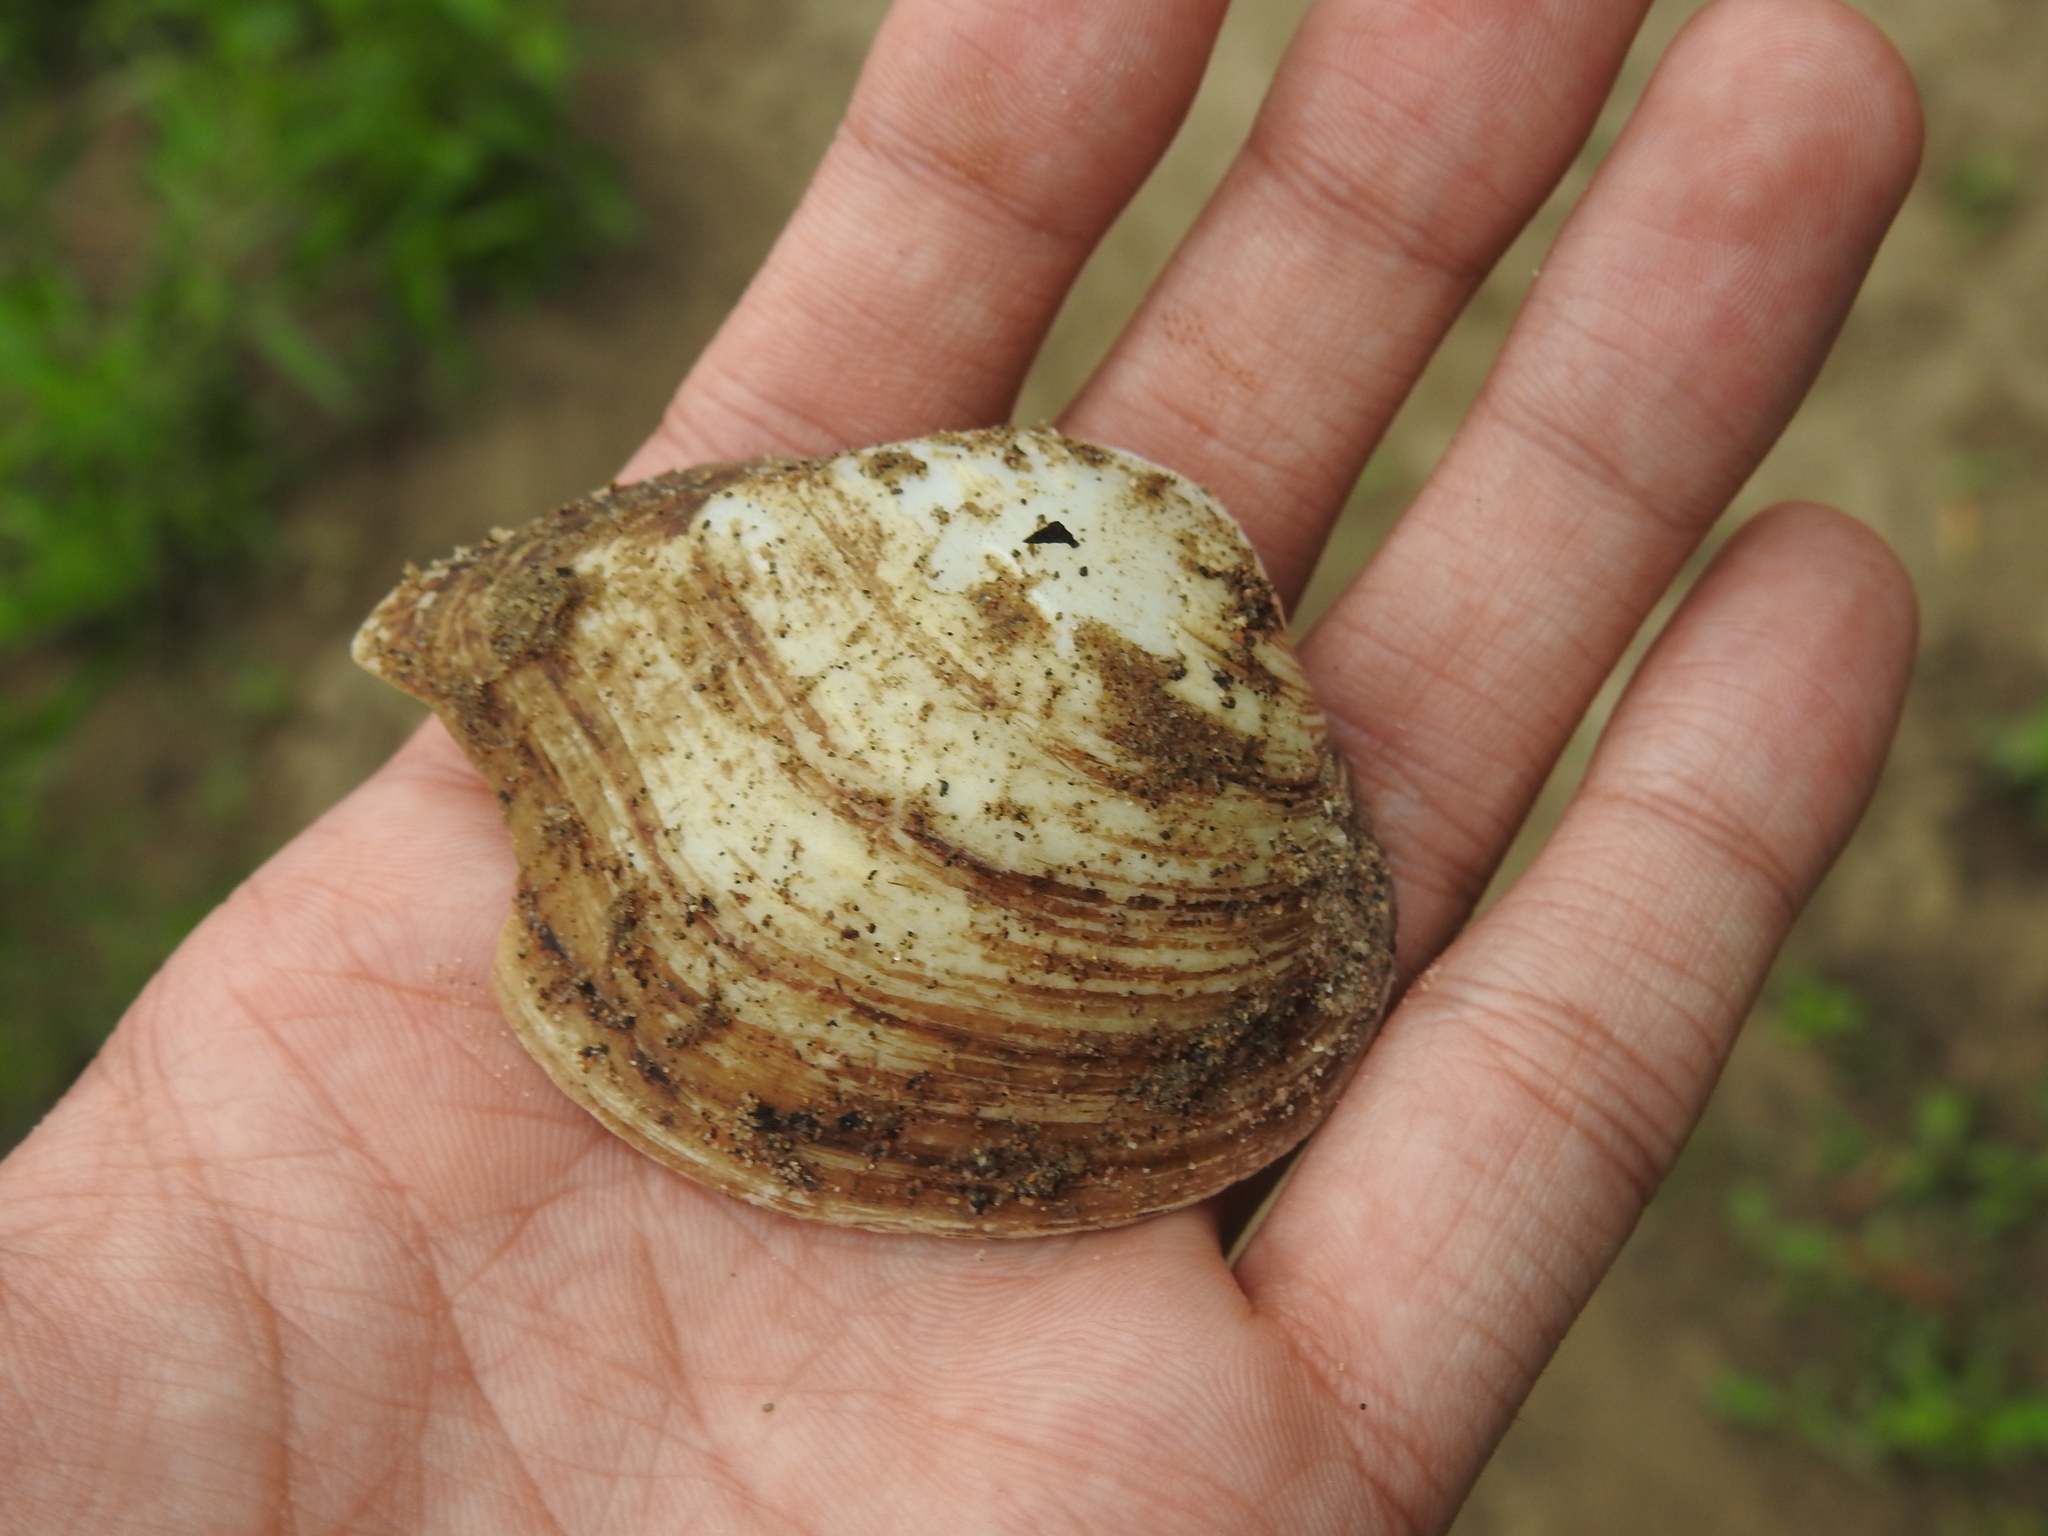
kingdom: Animalia
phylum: Mollusca
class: Bivalvia
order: Unionida
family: Unionidae
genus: Truncilla
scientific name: Truncilla truncata
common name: Deertoe
